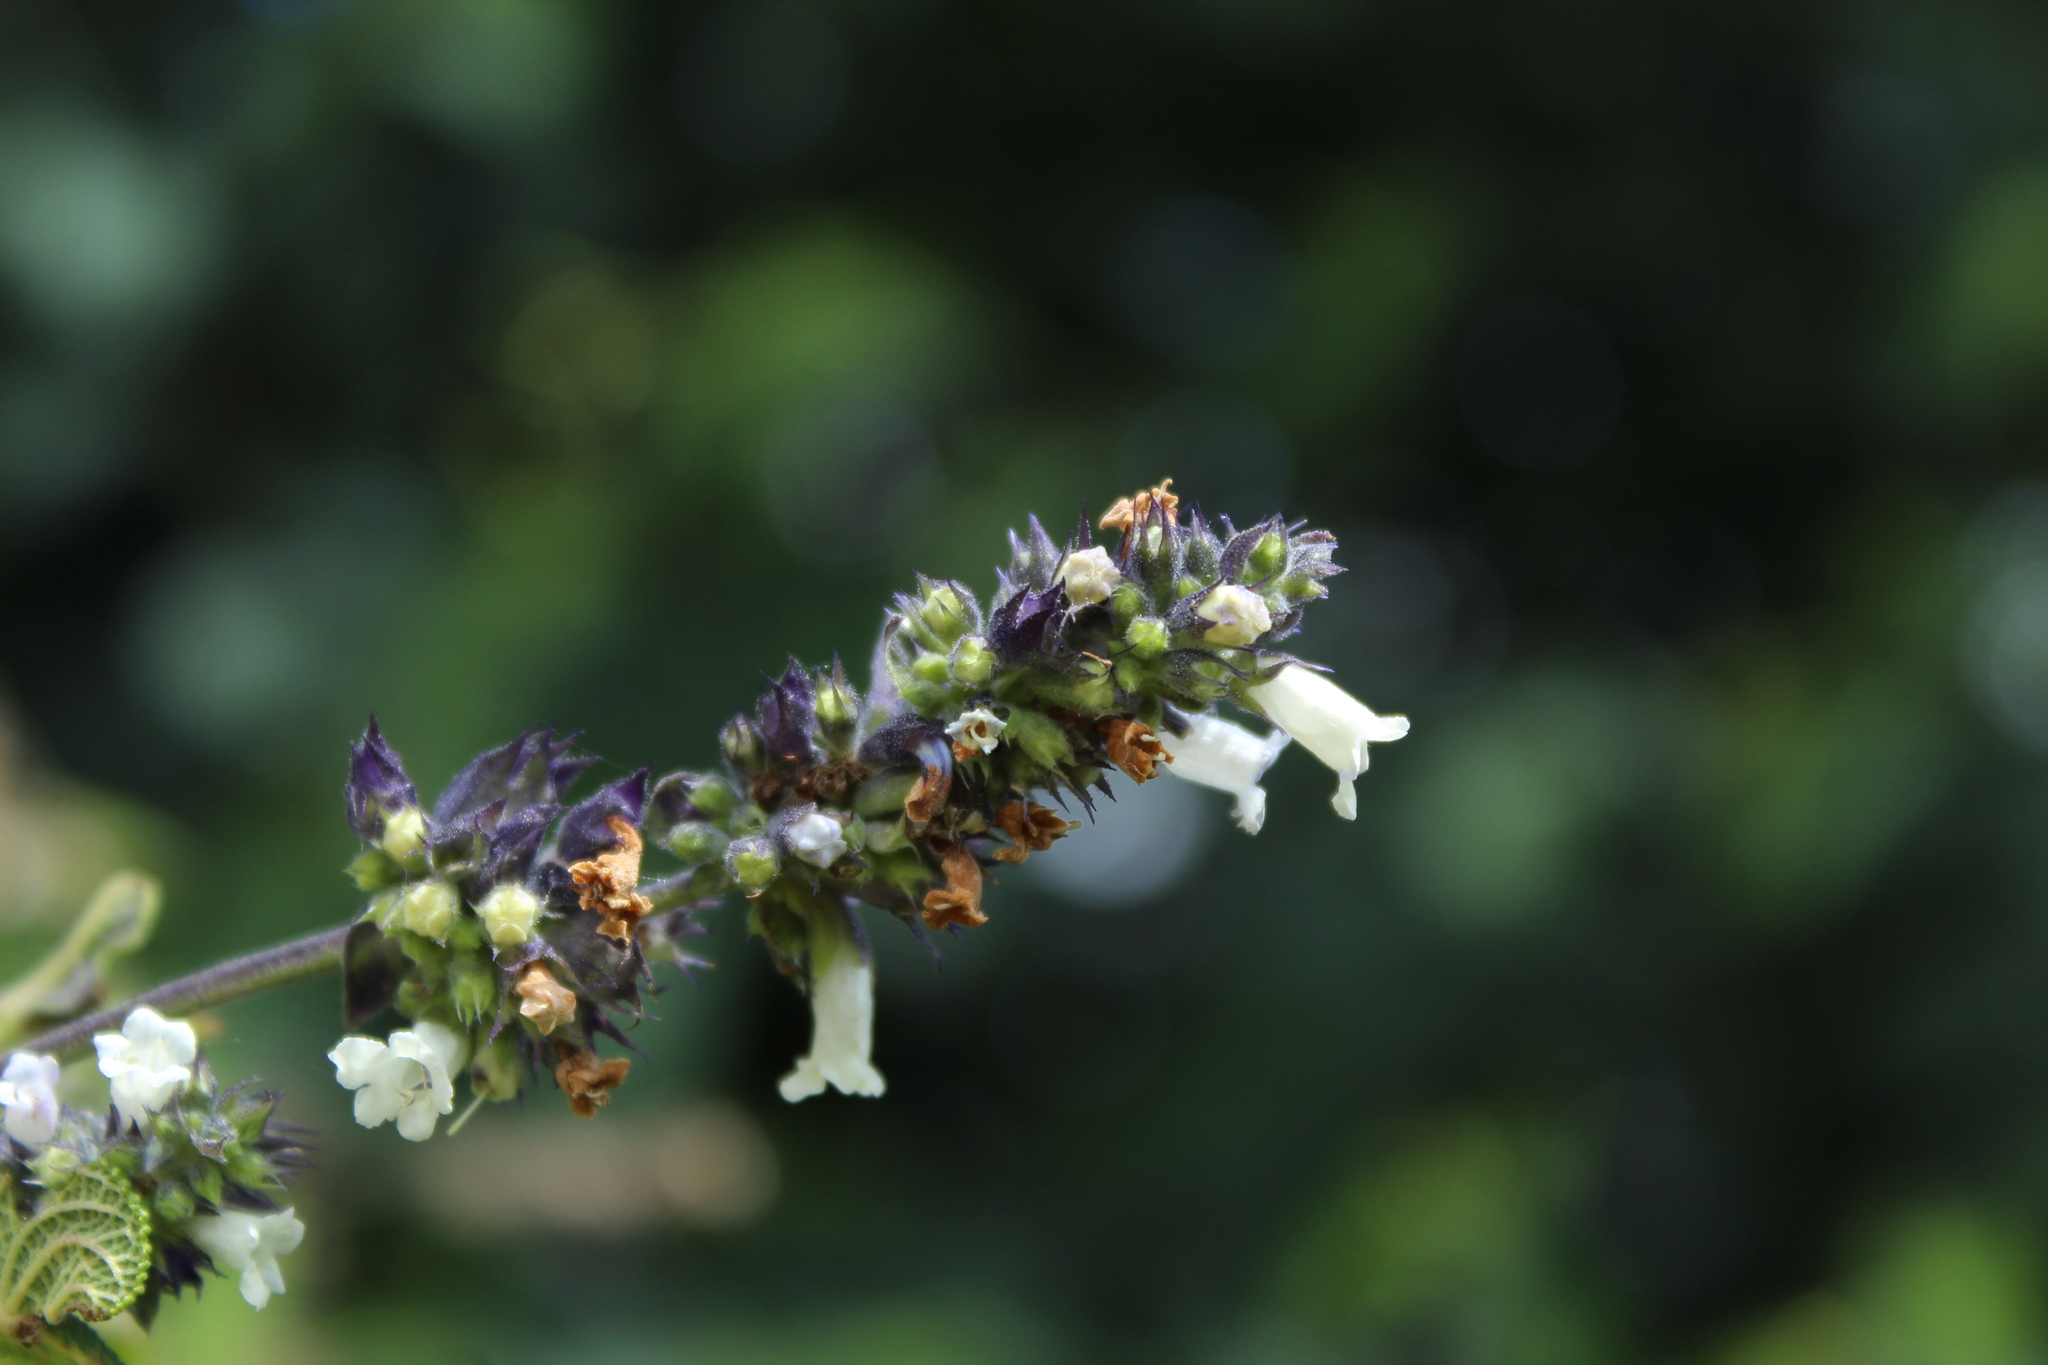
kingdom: Plantae
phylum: Tracheophyta
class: Magnoliopsida
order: Lamiales
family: Lamiaceae
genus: Lepechinia
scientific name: Lepechinia salviifolia
